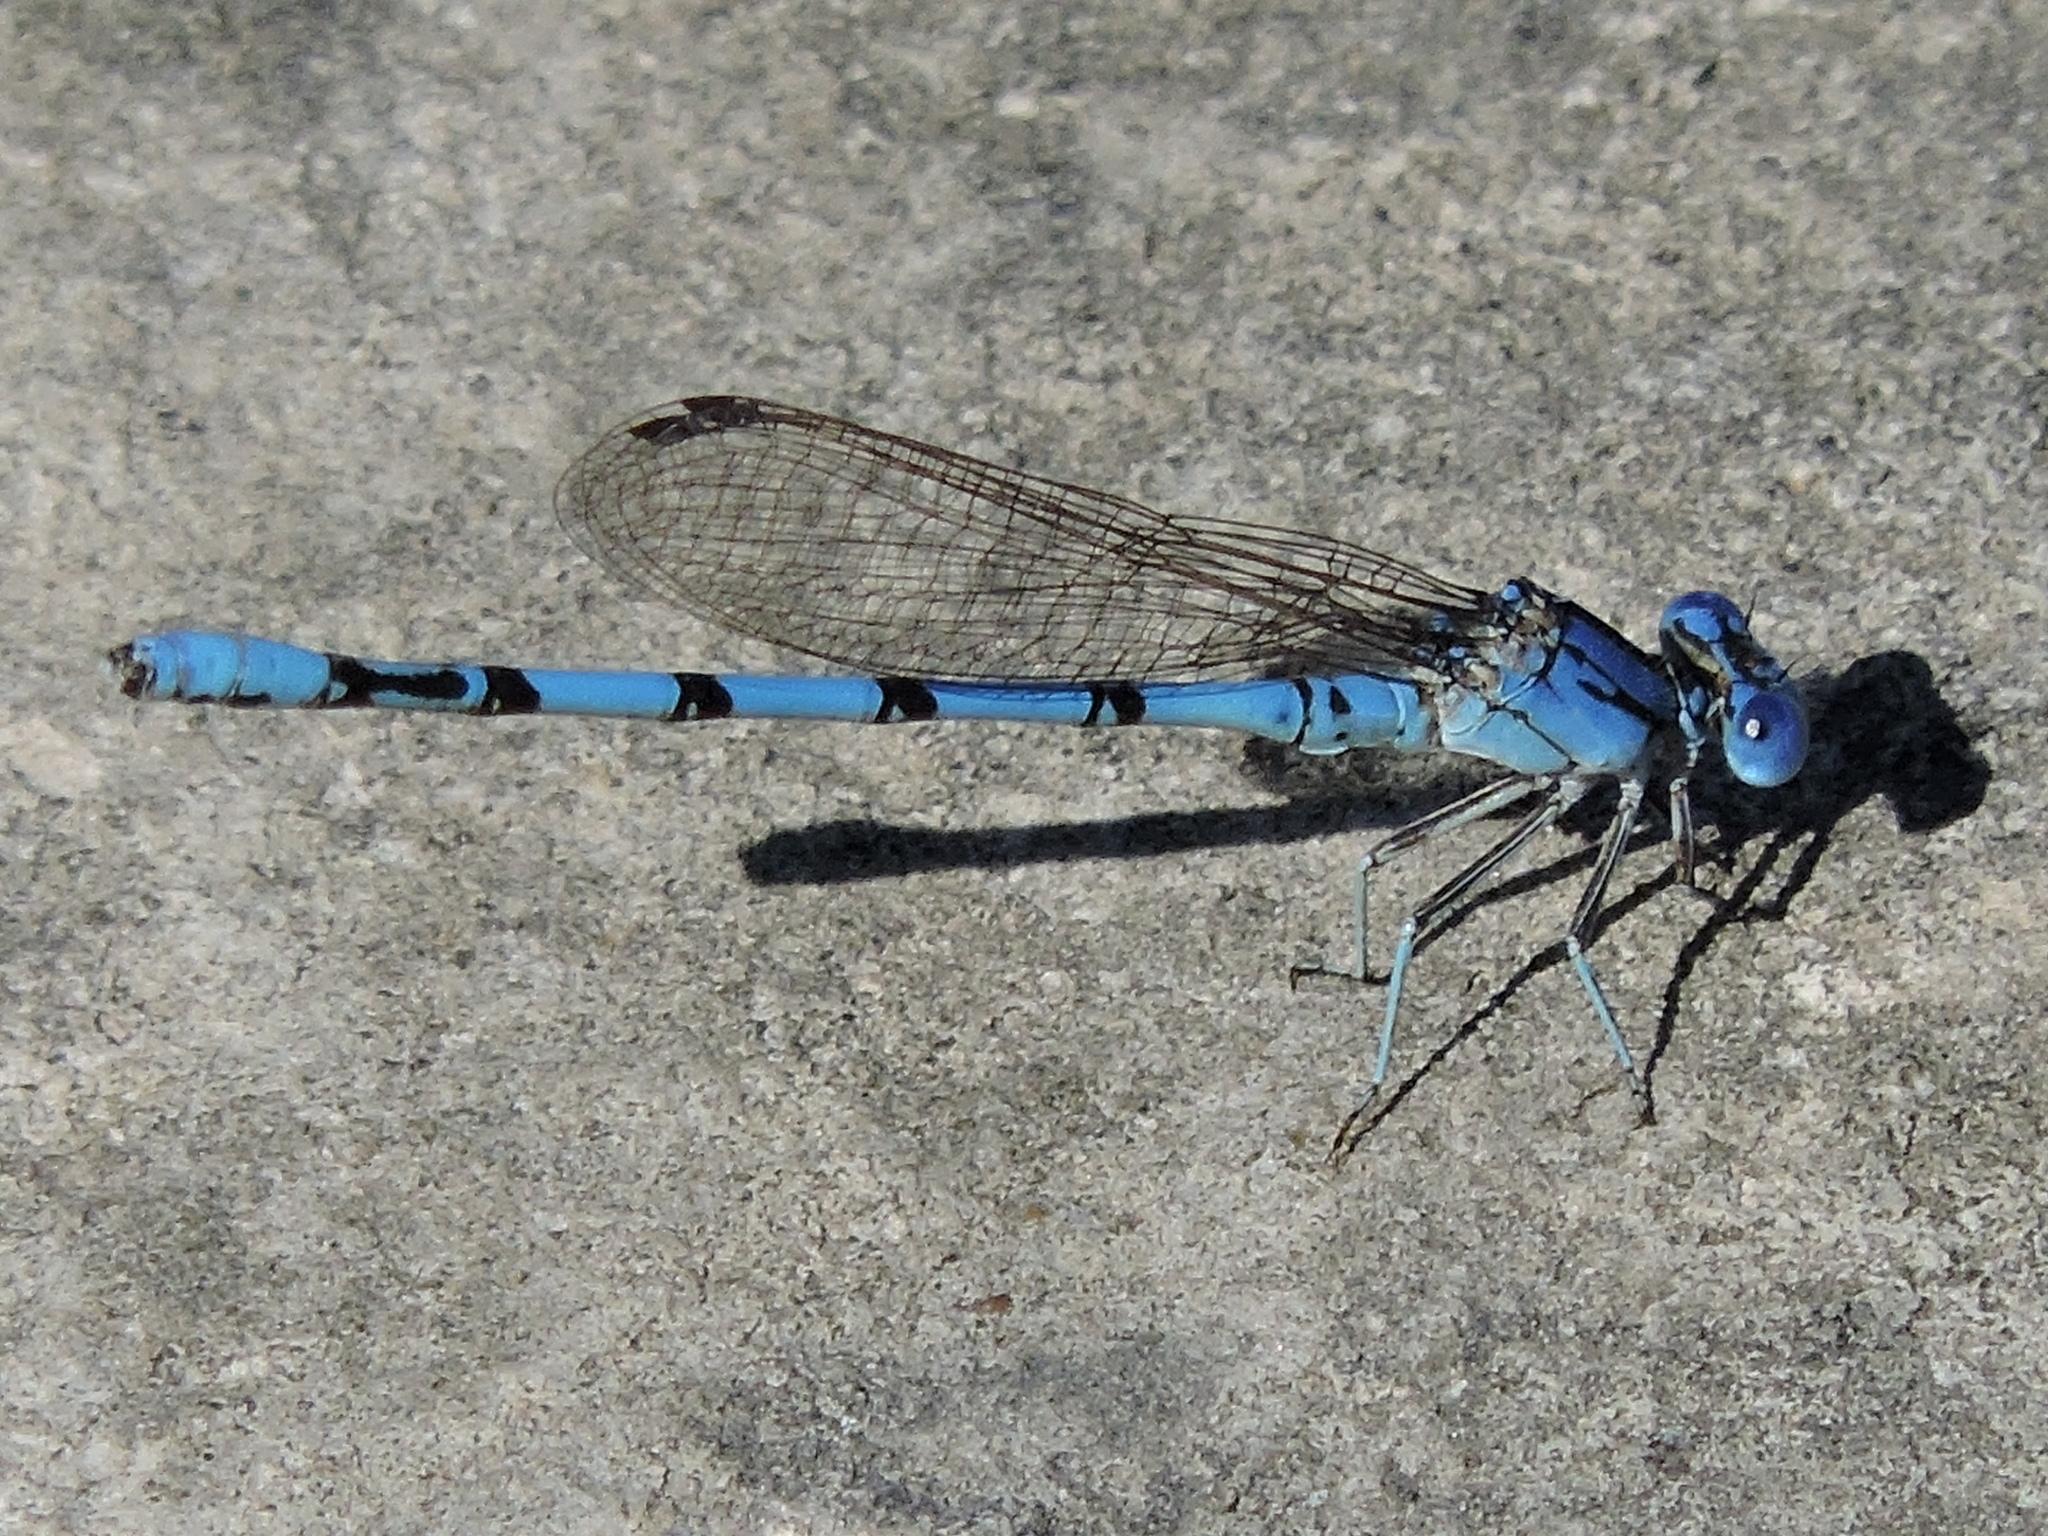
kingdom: Animalia
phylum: Arthropoda
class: Insecta
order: Odonata
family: Coenagrionidae
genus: Argia
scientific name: Argia nahuana
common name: Aztec dancer
